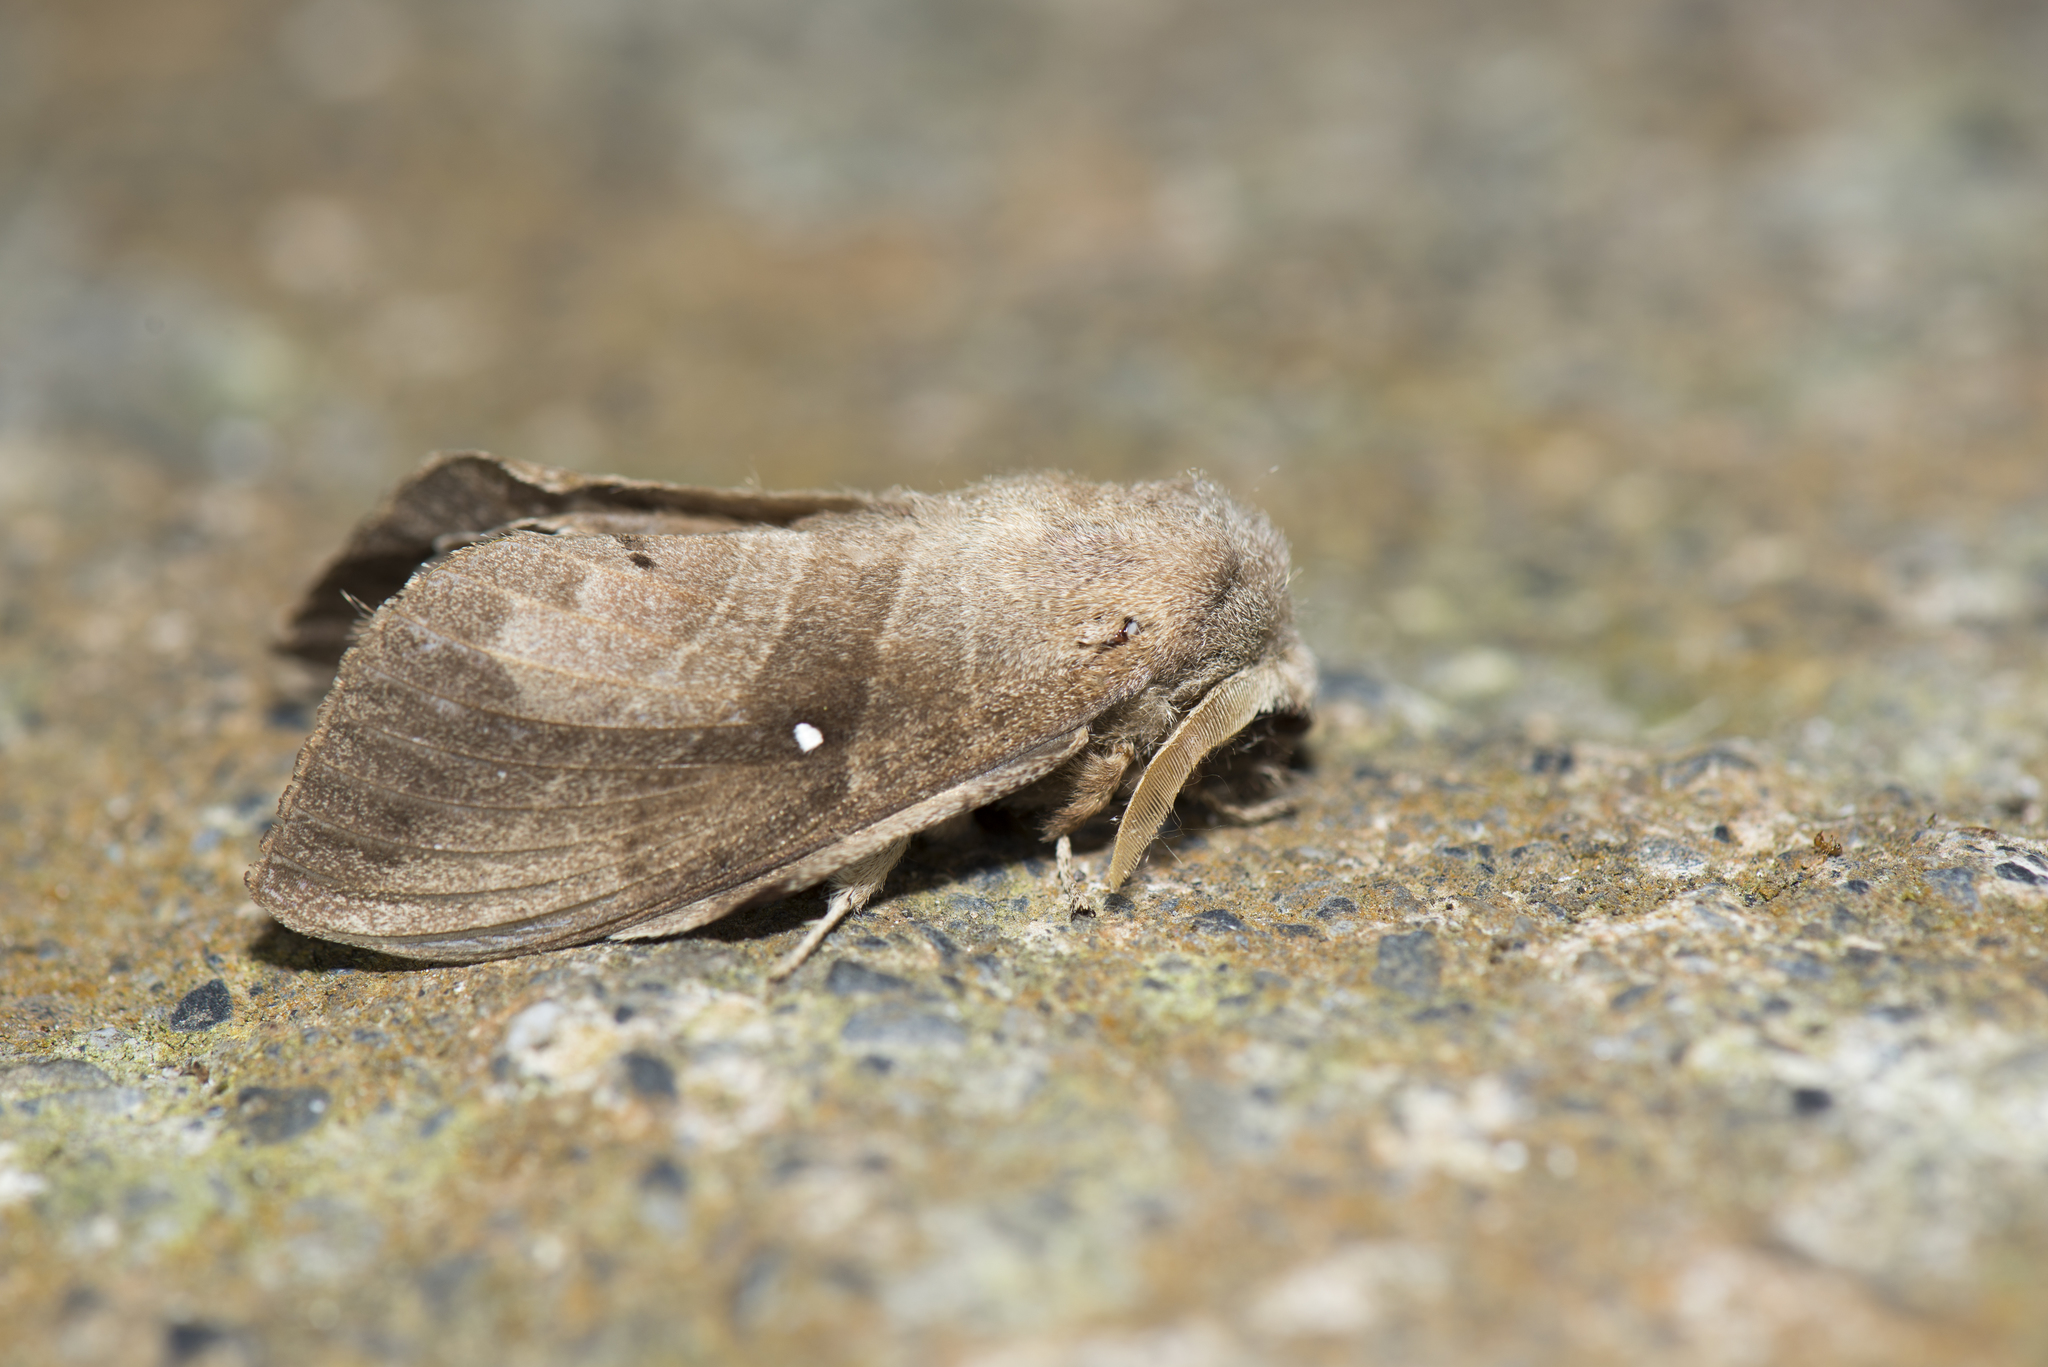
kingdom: Animalia
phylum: Arthropoda
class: Insecta
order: Lepidoptera
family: Lasiocampidae
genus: Lebeda
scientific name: Lebeda nobilis
